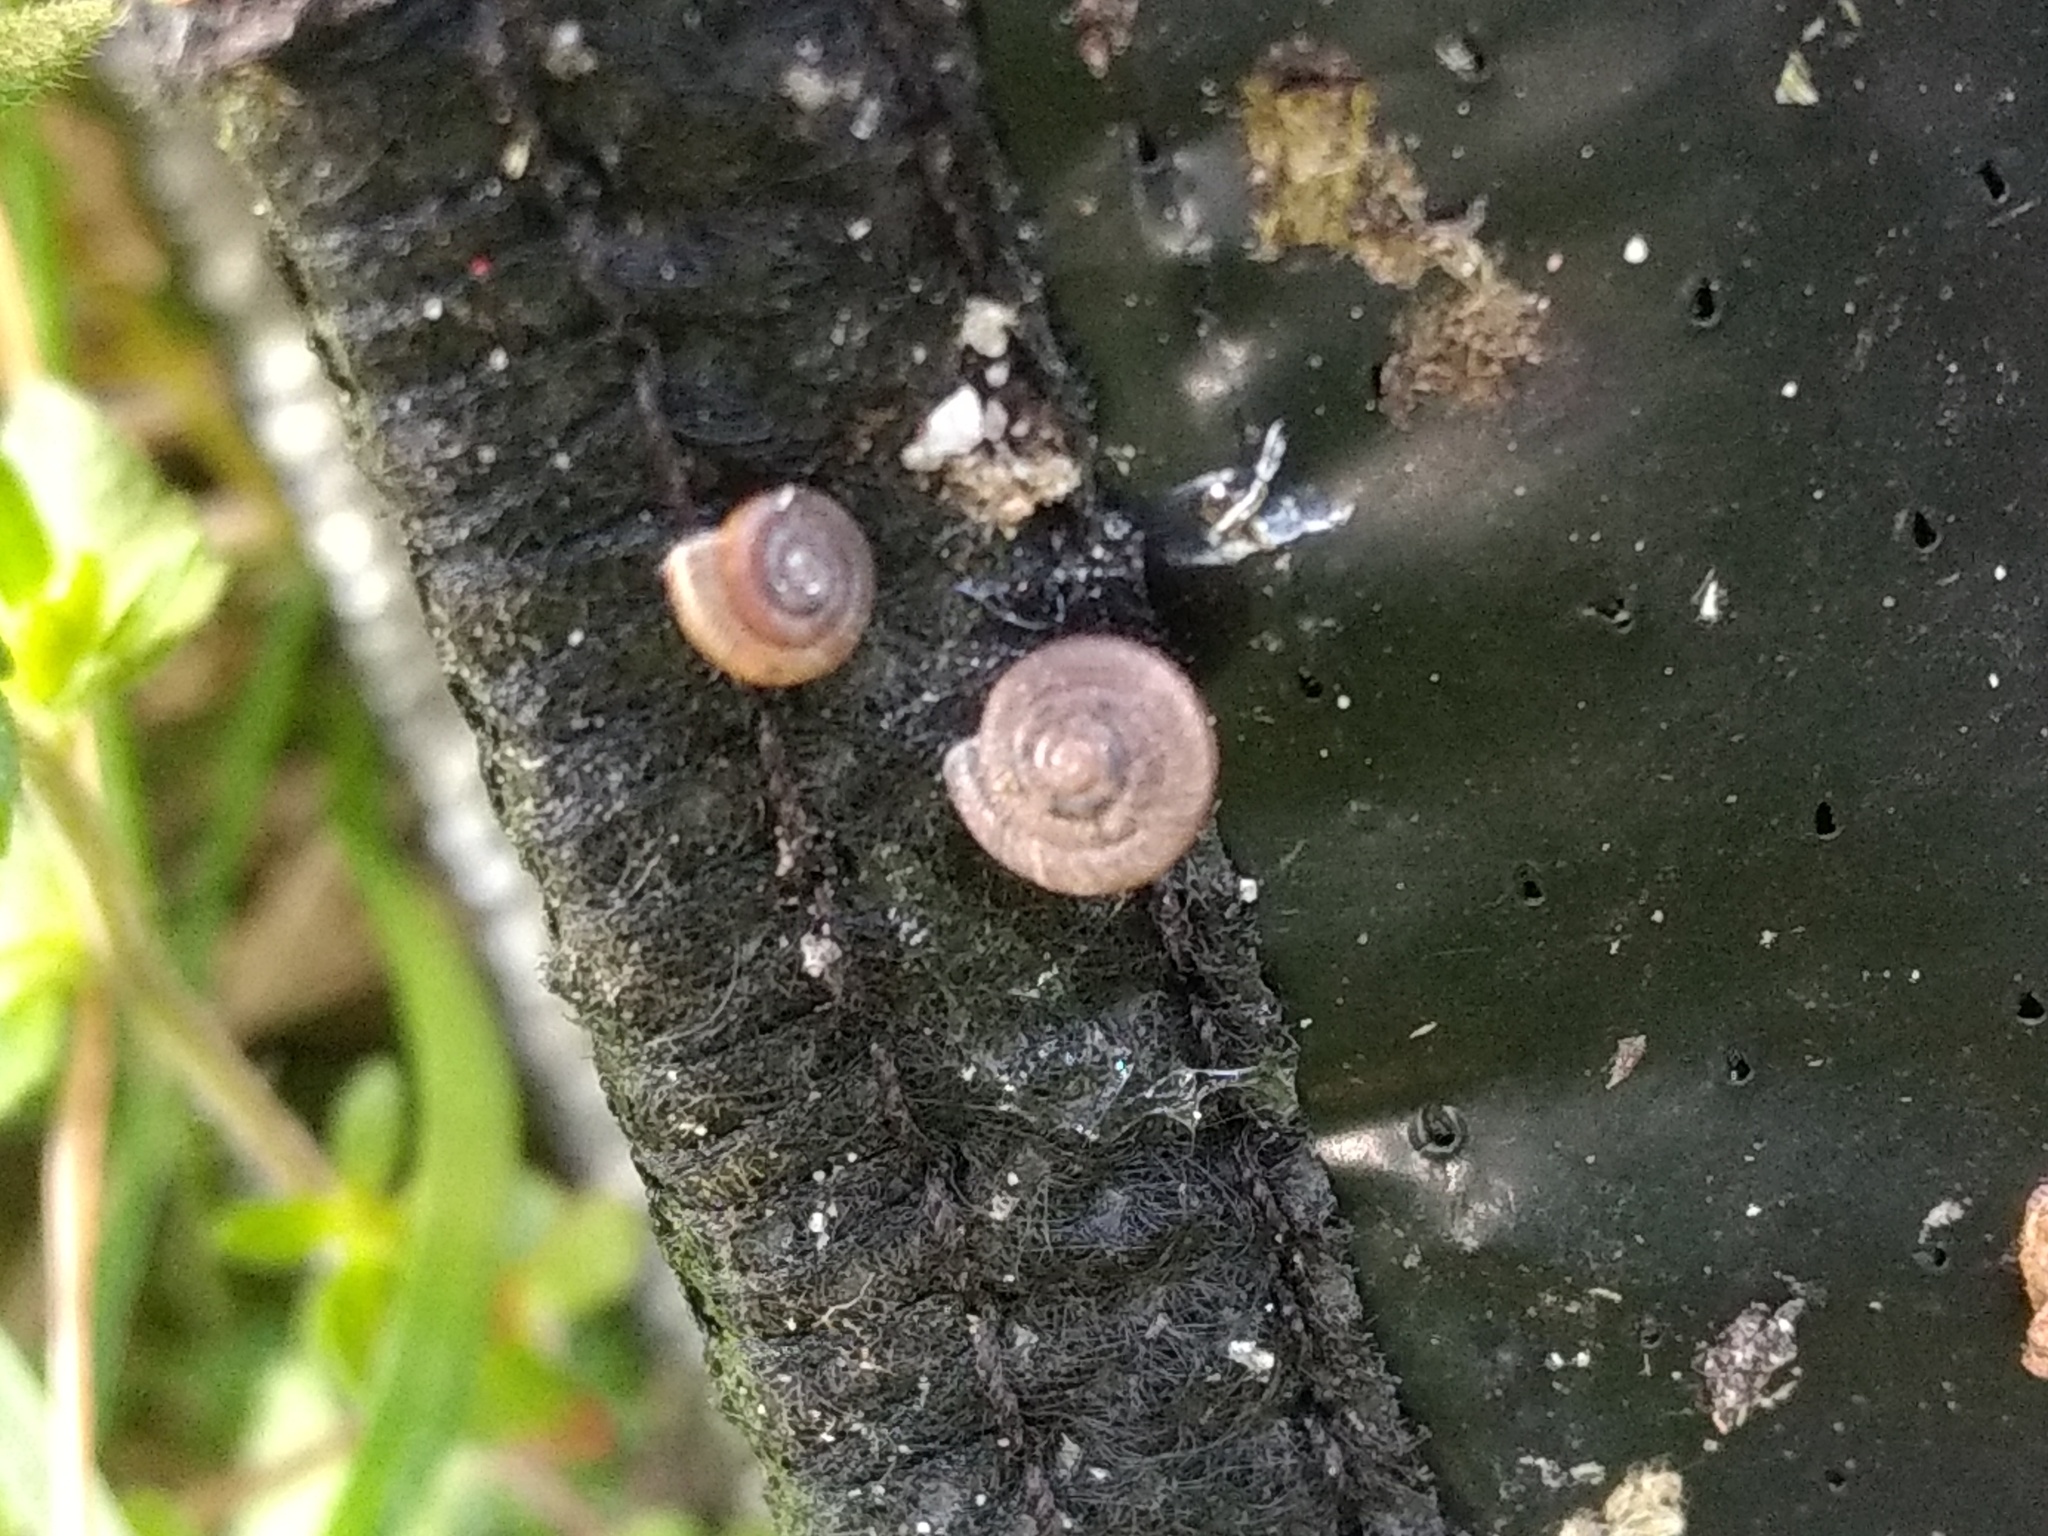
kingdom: Animalia
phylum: Mollusca
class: Gastropoda
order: Stylommatophora
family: Polygyridae
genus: Polygyra
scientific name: Polygyra cereolus
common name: Southern flatcone snail
